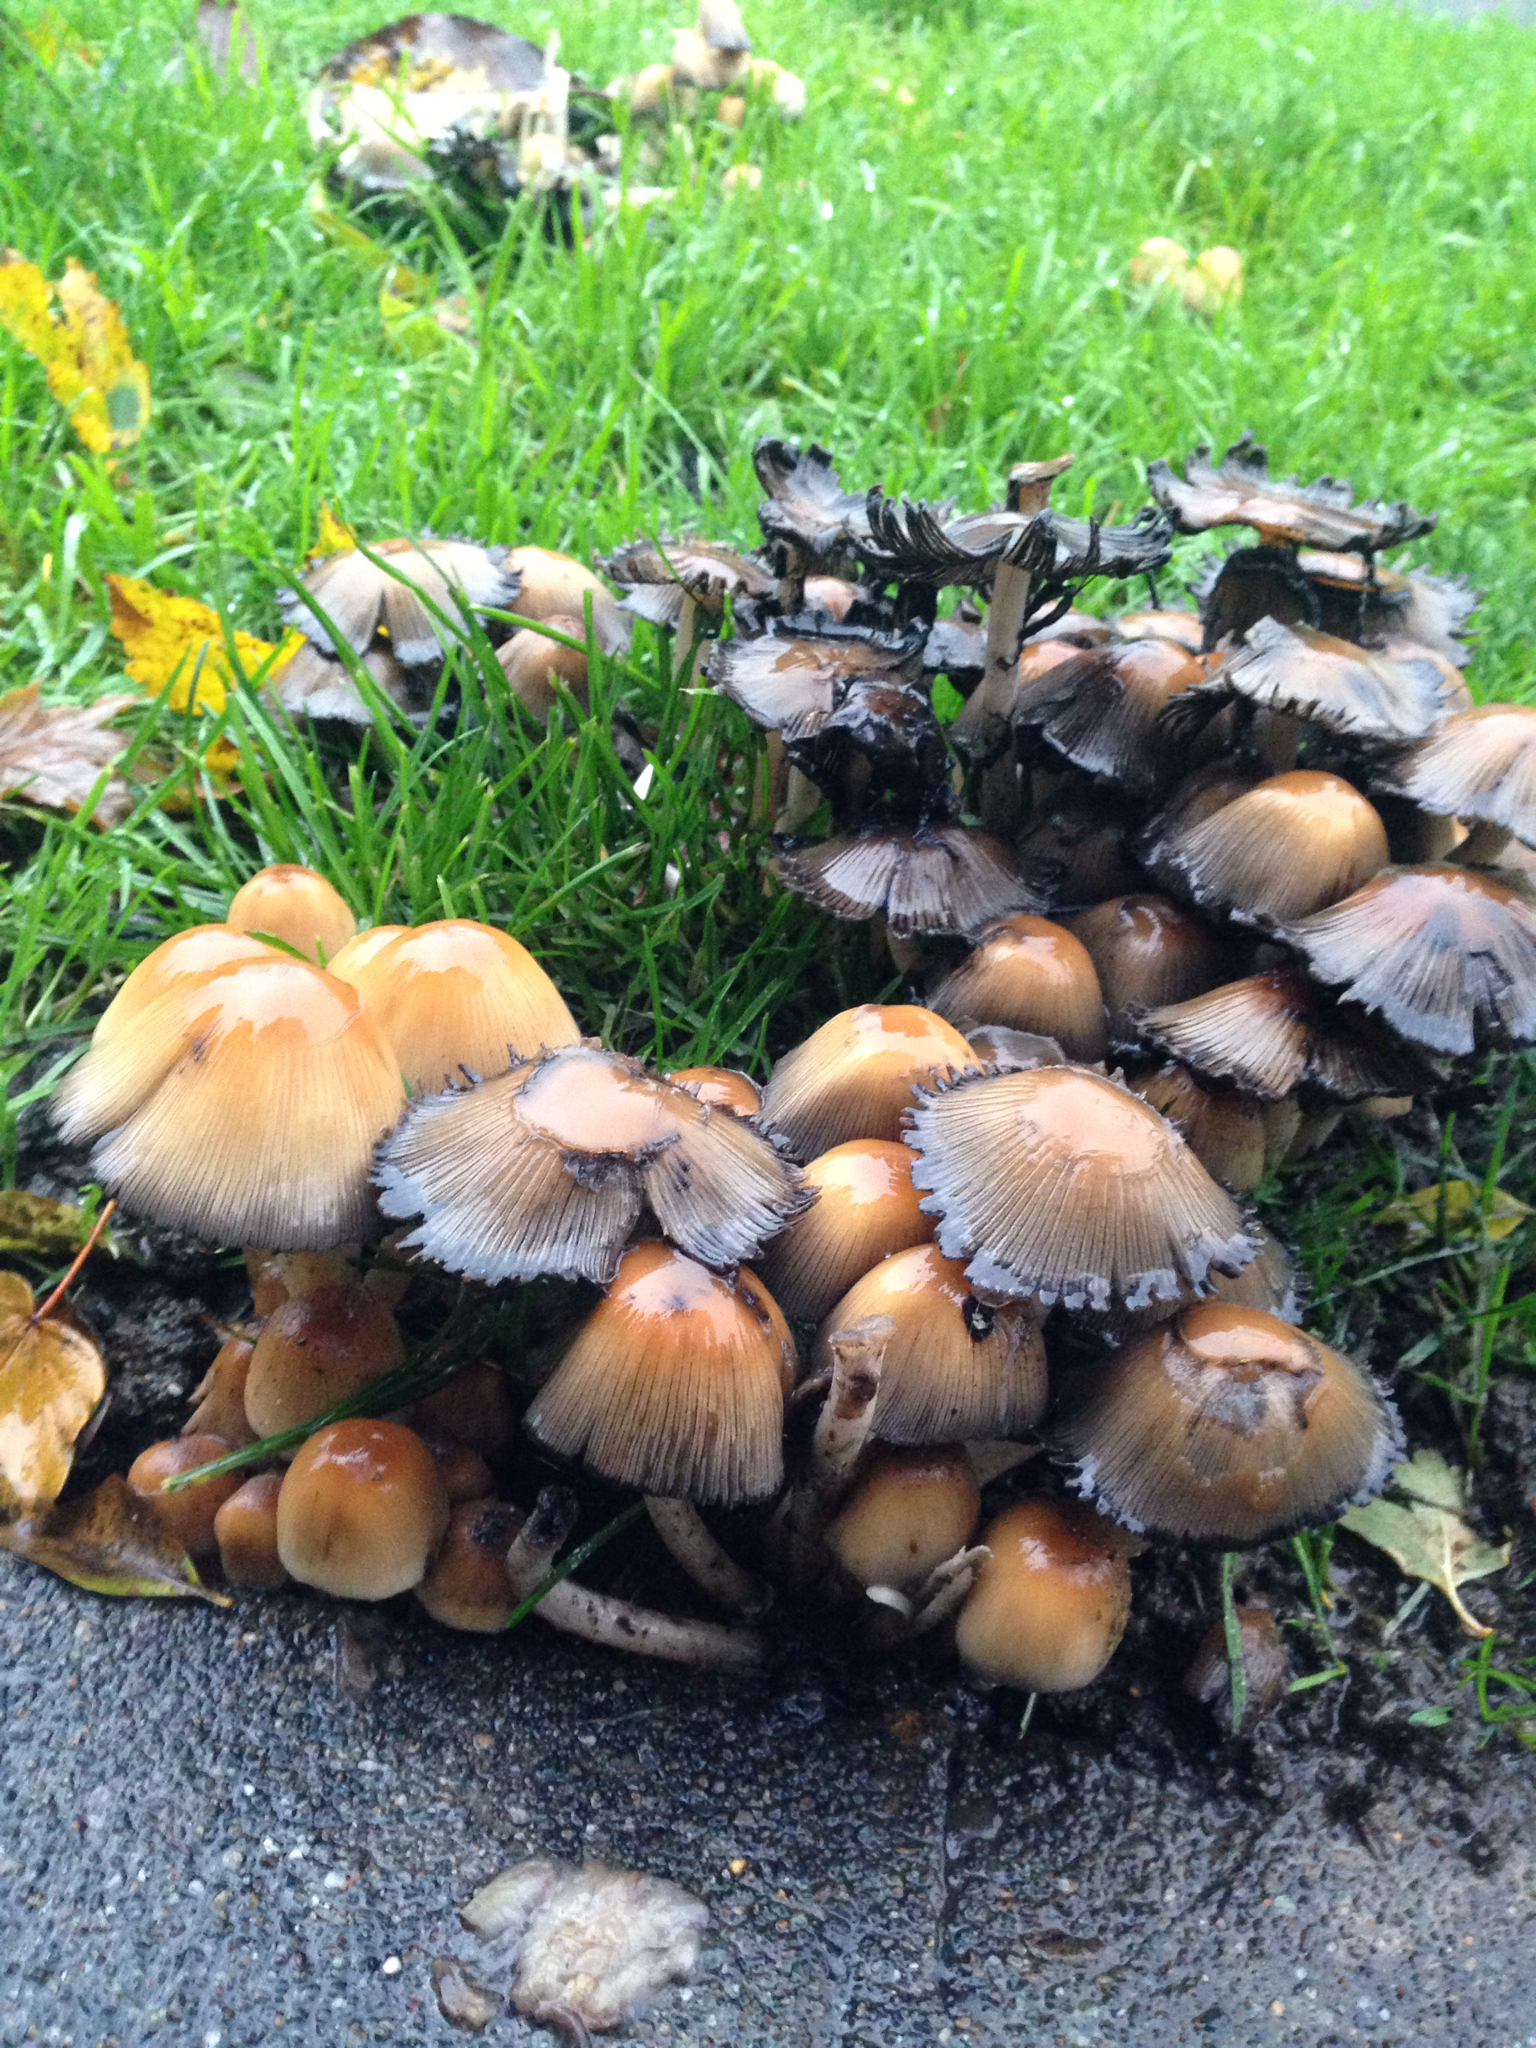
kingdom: Fungi
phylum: Basidiomycota
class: Agaricomycetes
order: Agaricales
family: Psathyrellaceae
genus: Coprinellus
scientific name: Coprinellus micaceus
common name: Glistening ink-cap
